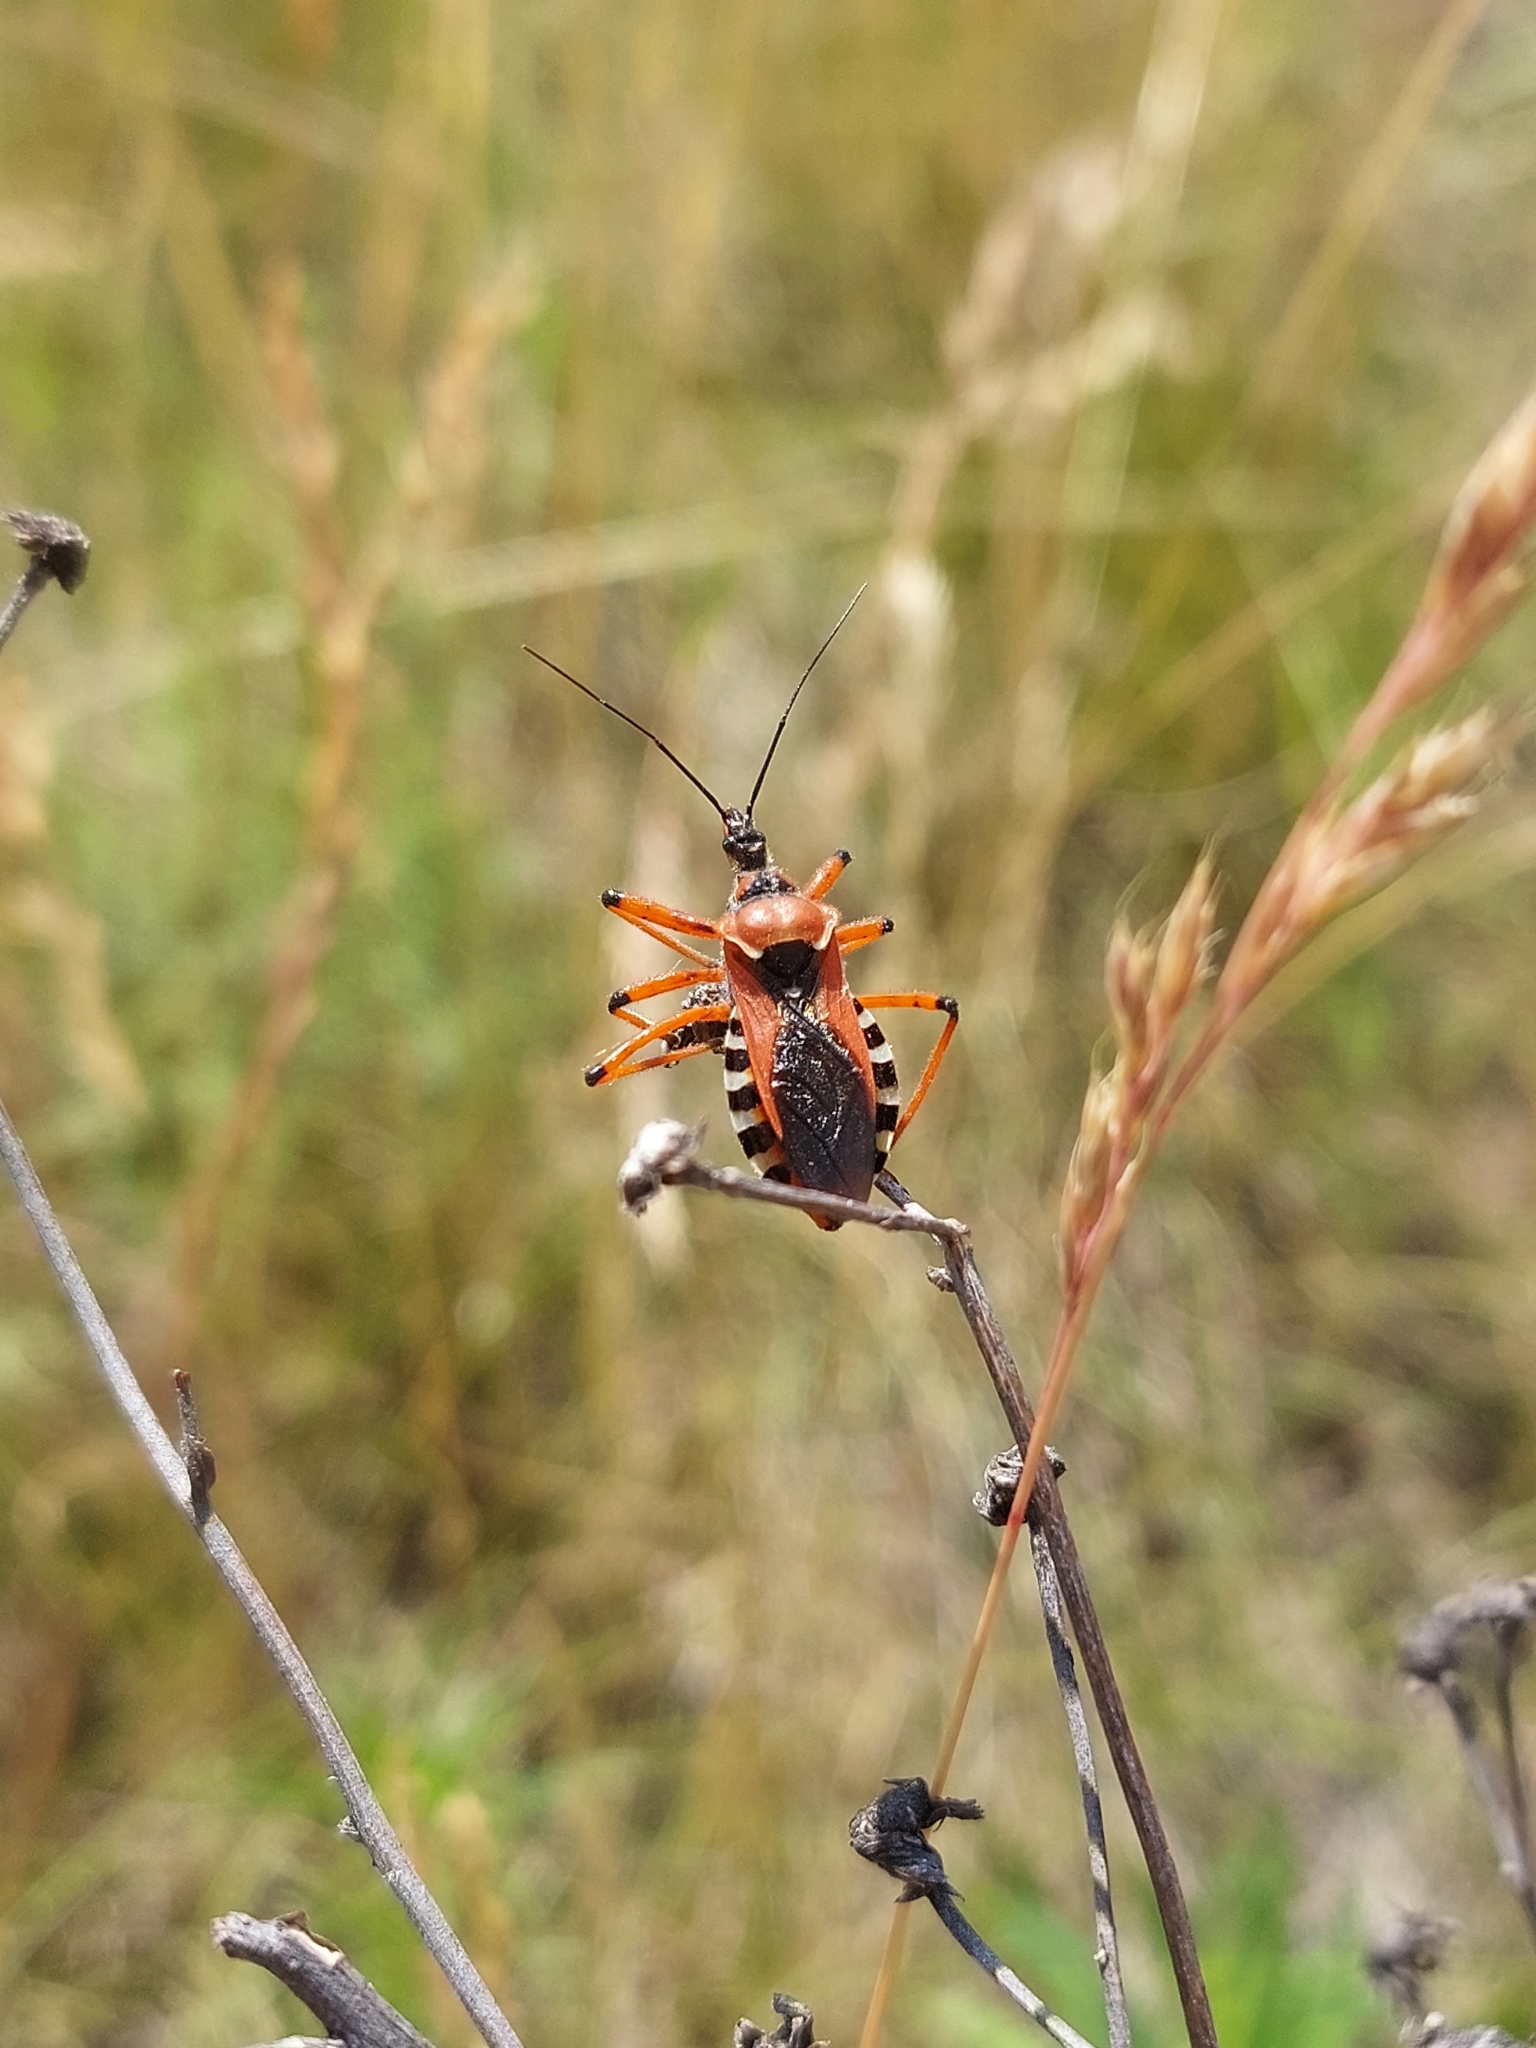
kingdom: Animalia
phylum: Arthropoda
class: Insecta
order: Hemiptera
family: Reduviidae
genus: Rhynocoris
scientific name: Rhynocoris iracundus
